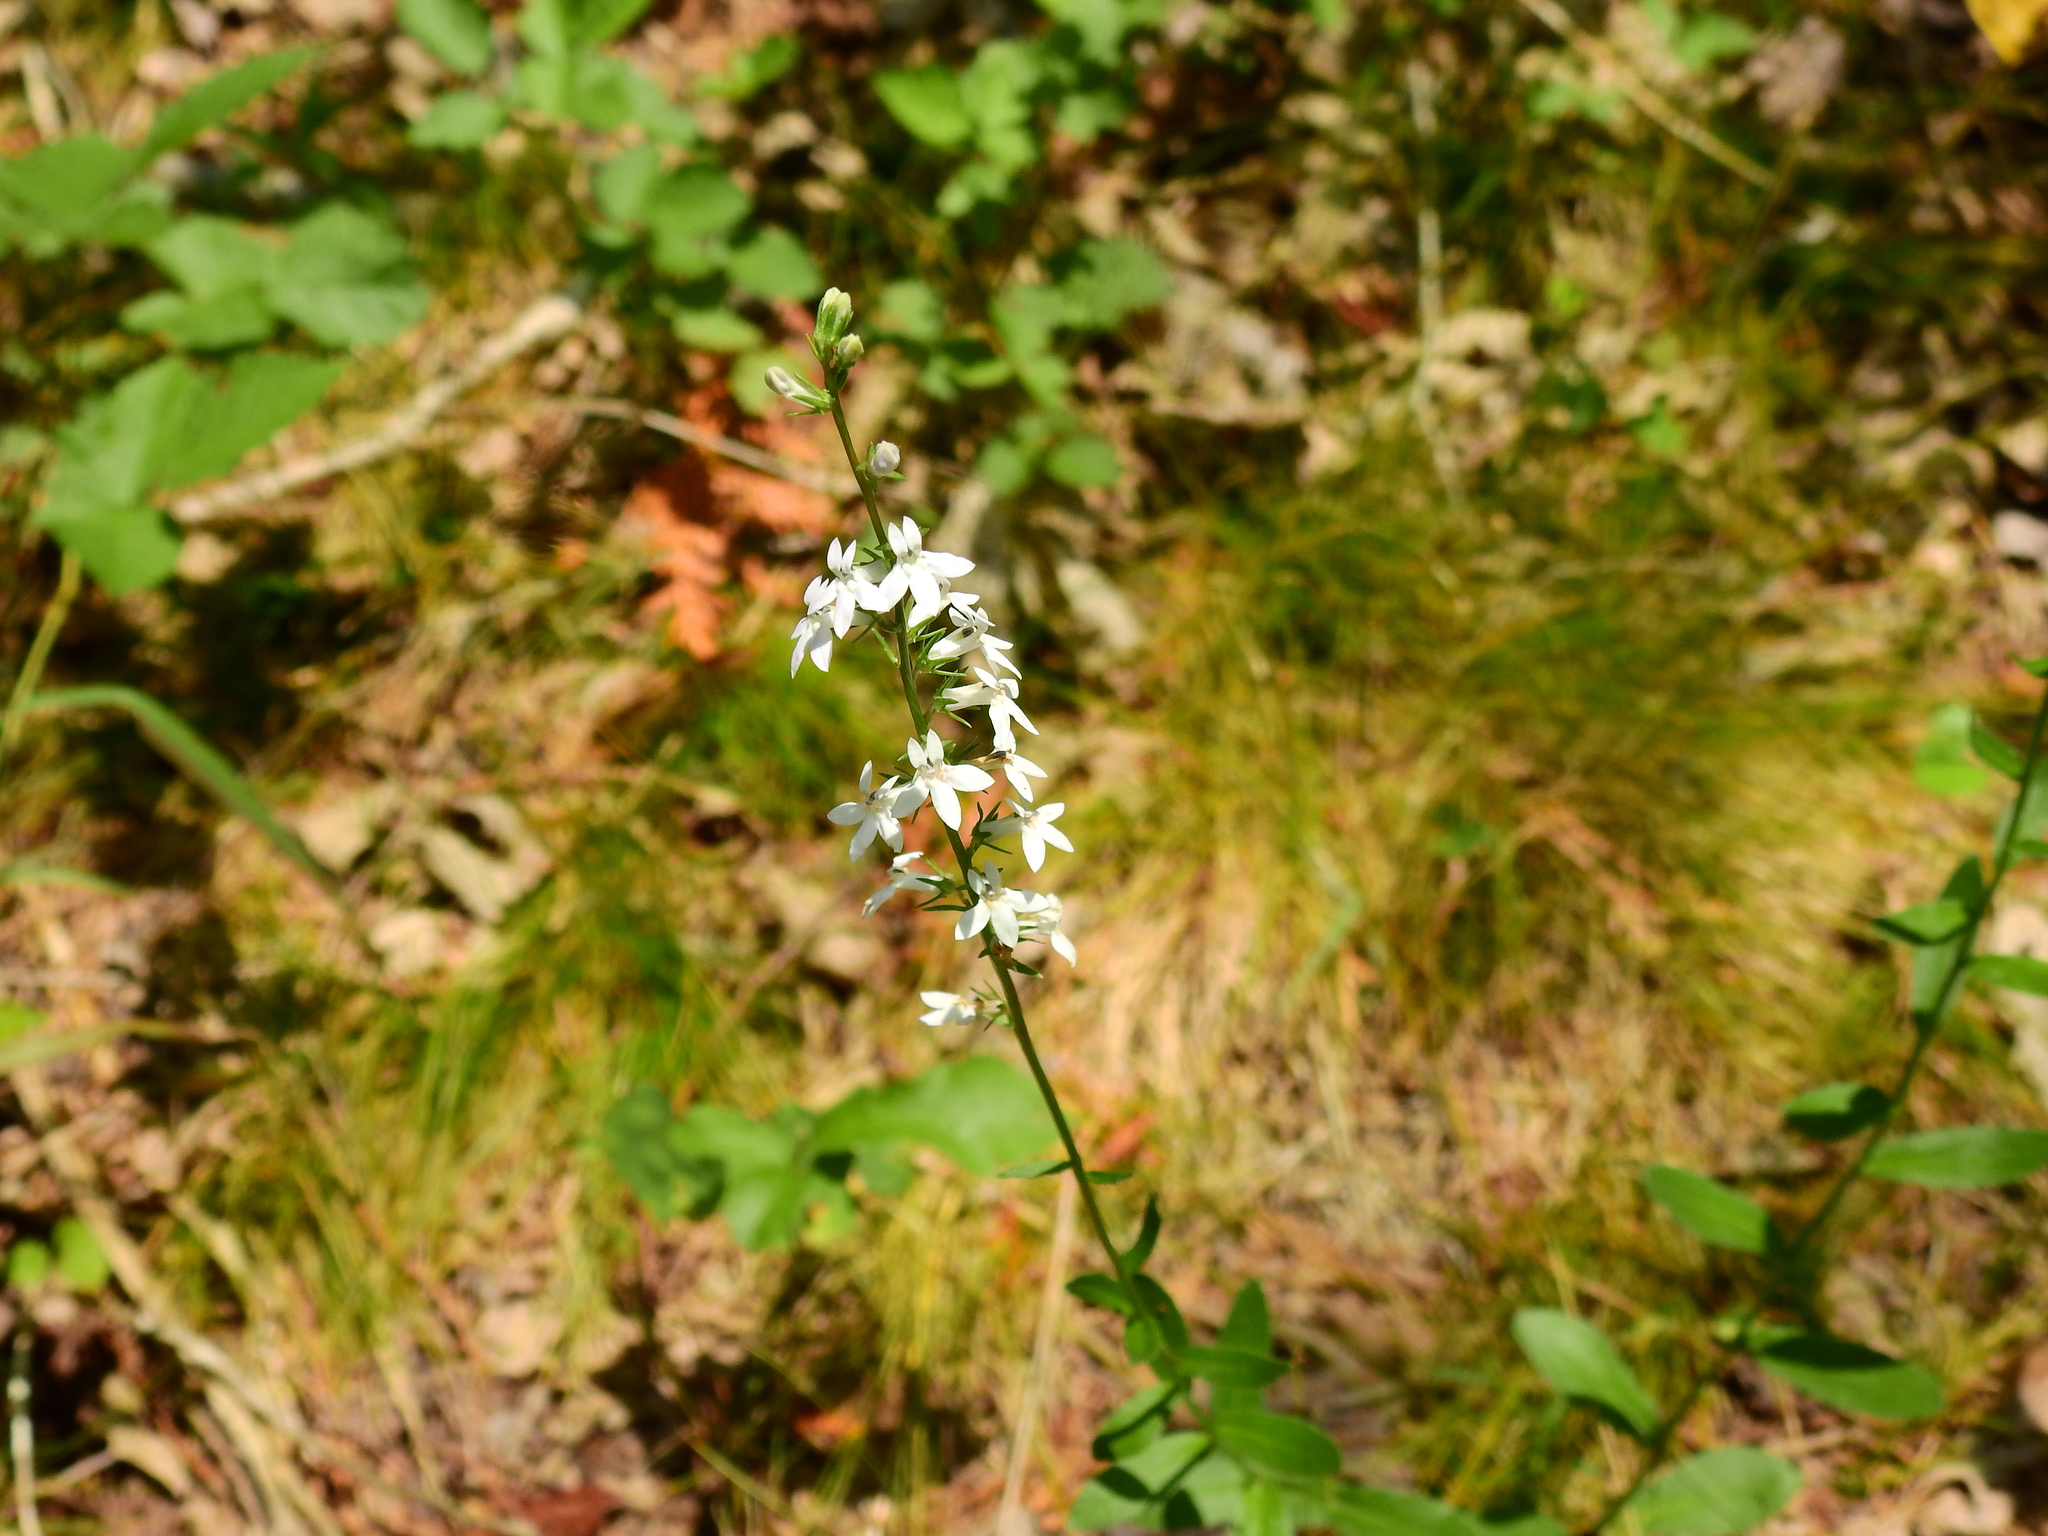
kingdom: Plantae
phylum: Tracheophyta
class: Magnoliopsida
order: Asterales
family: Campanulaceae
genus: Lobelia
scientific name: Lobelia spicata
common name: Pale-spike lobelia
